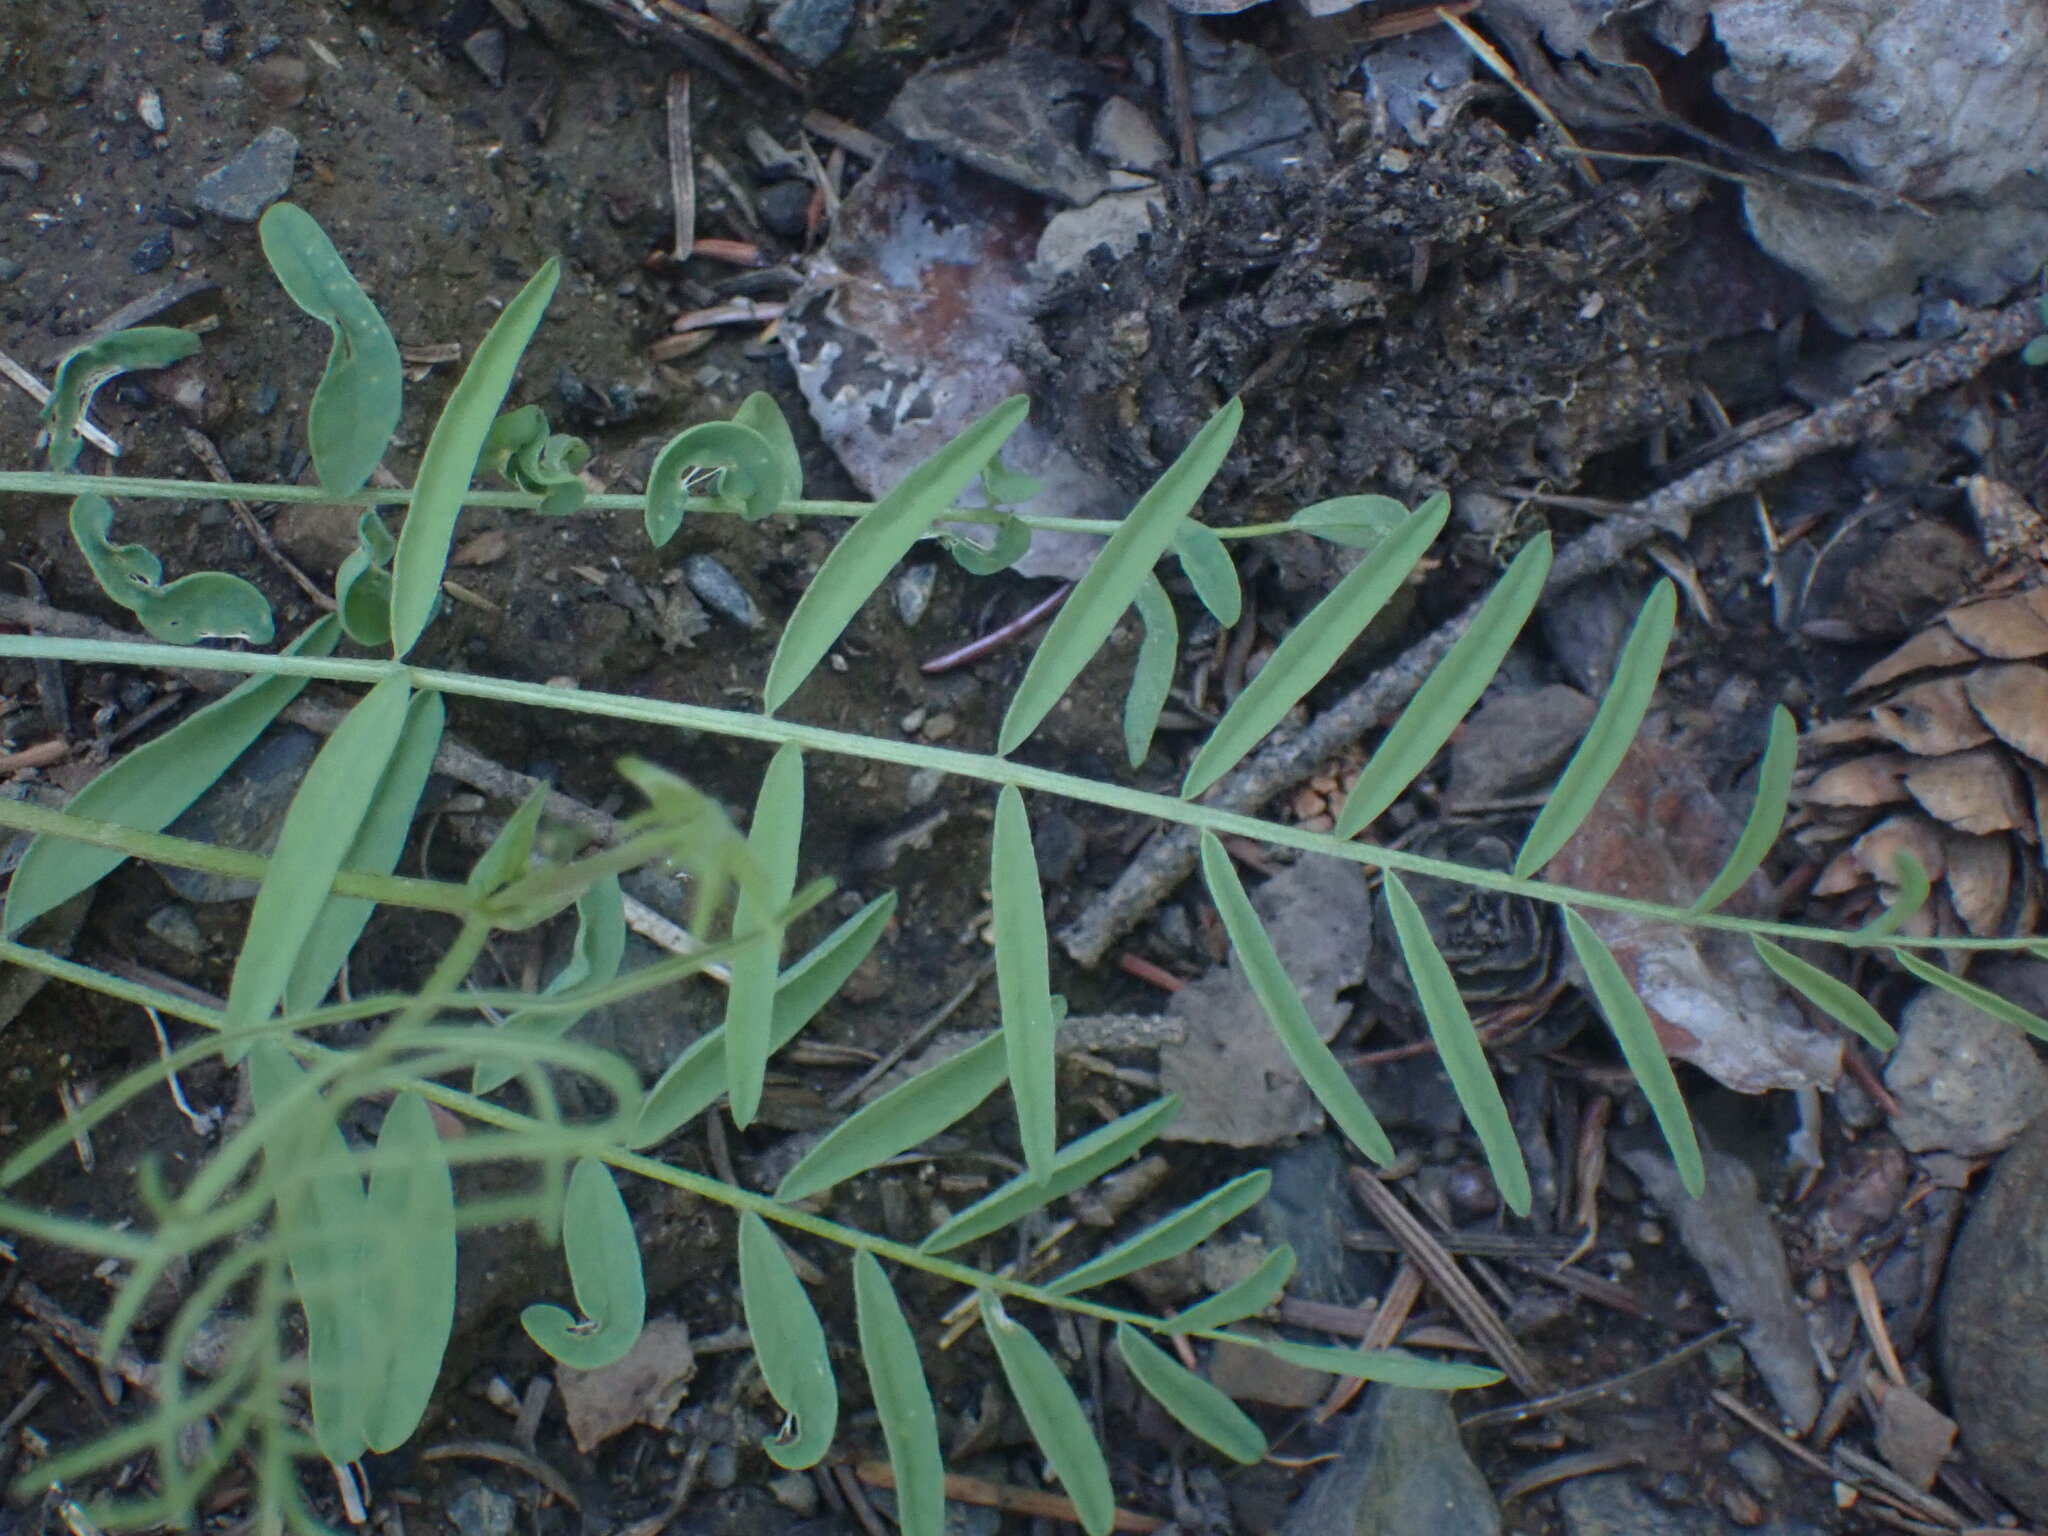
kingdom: Plantae
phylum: Tracheophyta
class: Magnoliopsida
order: Fabales
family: Fabaceae
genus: Astragalus
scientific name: Astragalus miser
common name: Timber milkvetch
